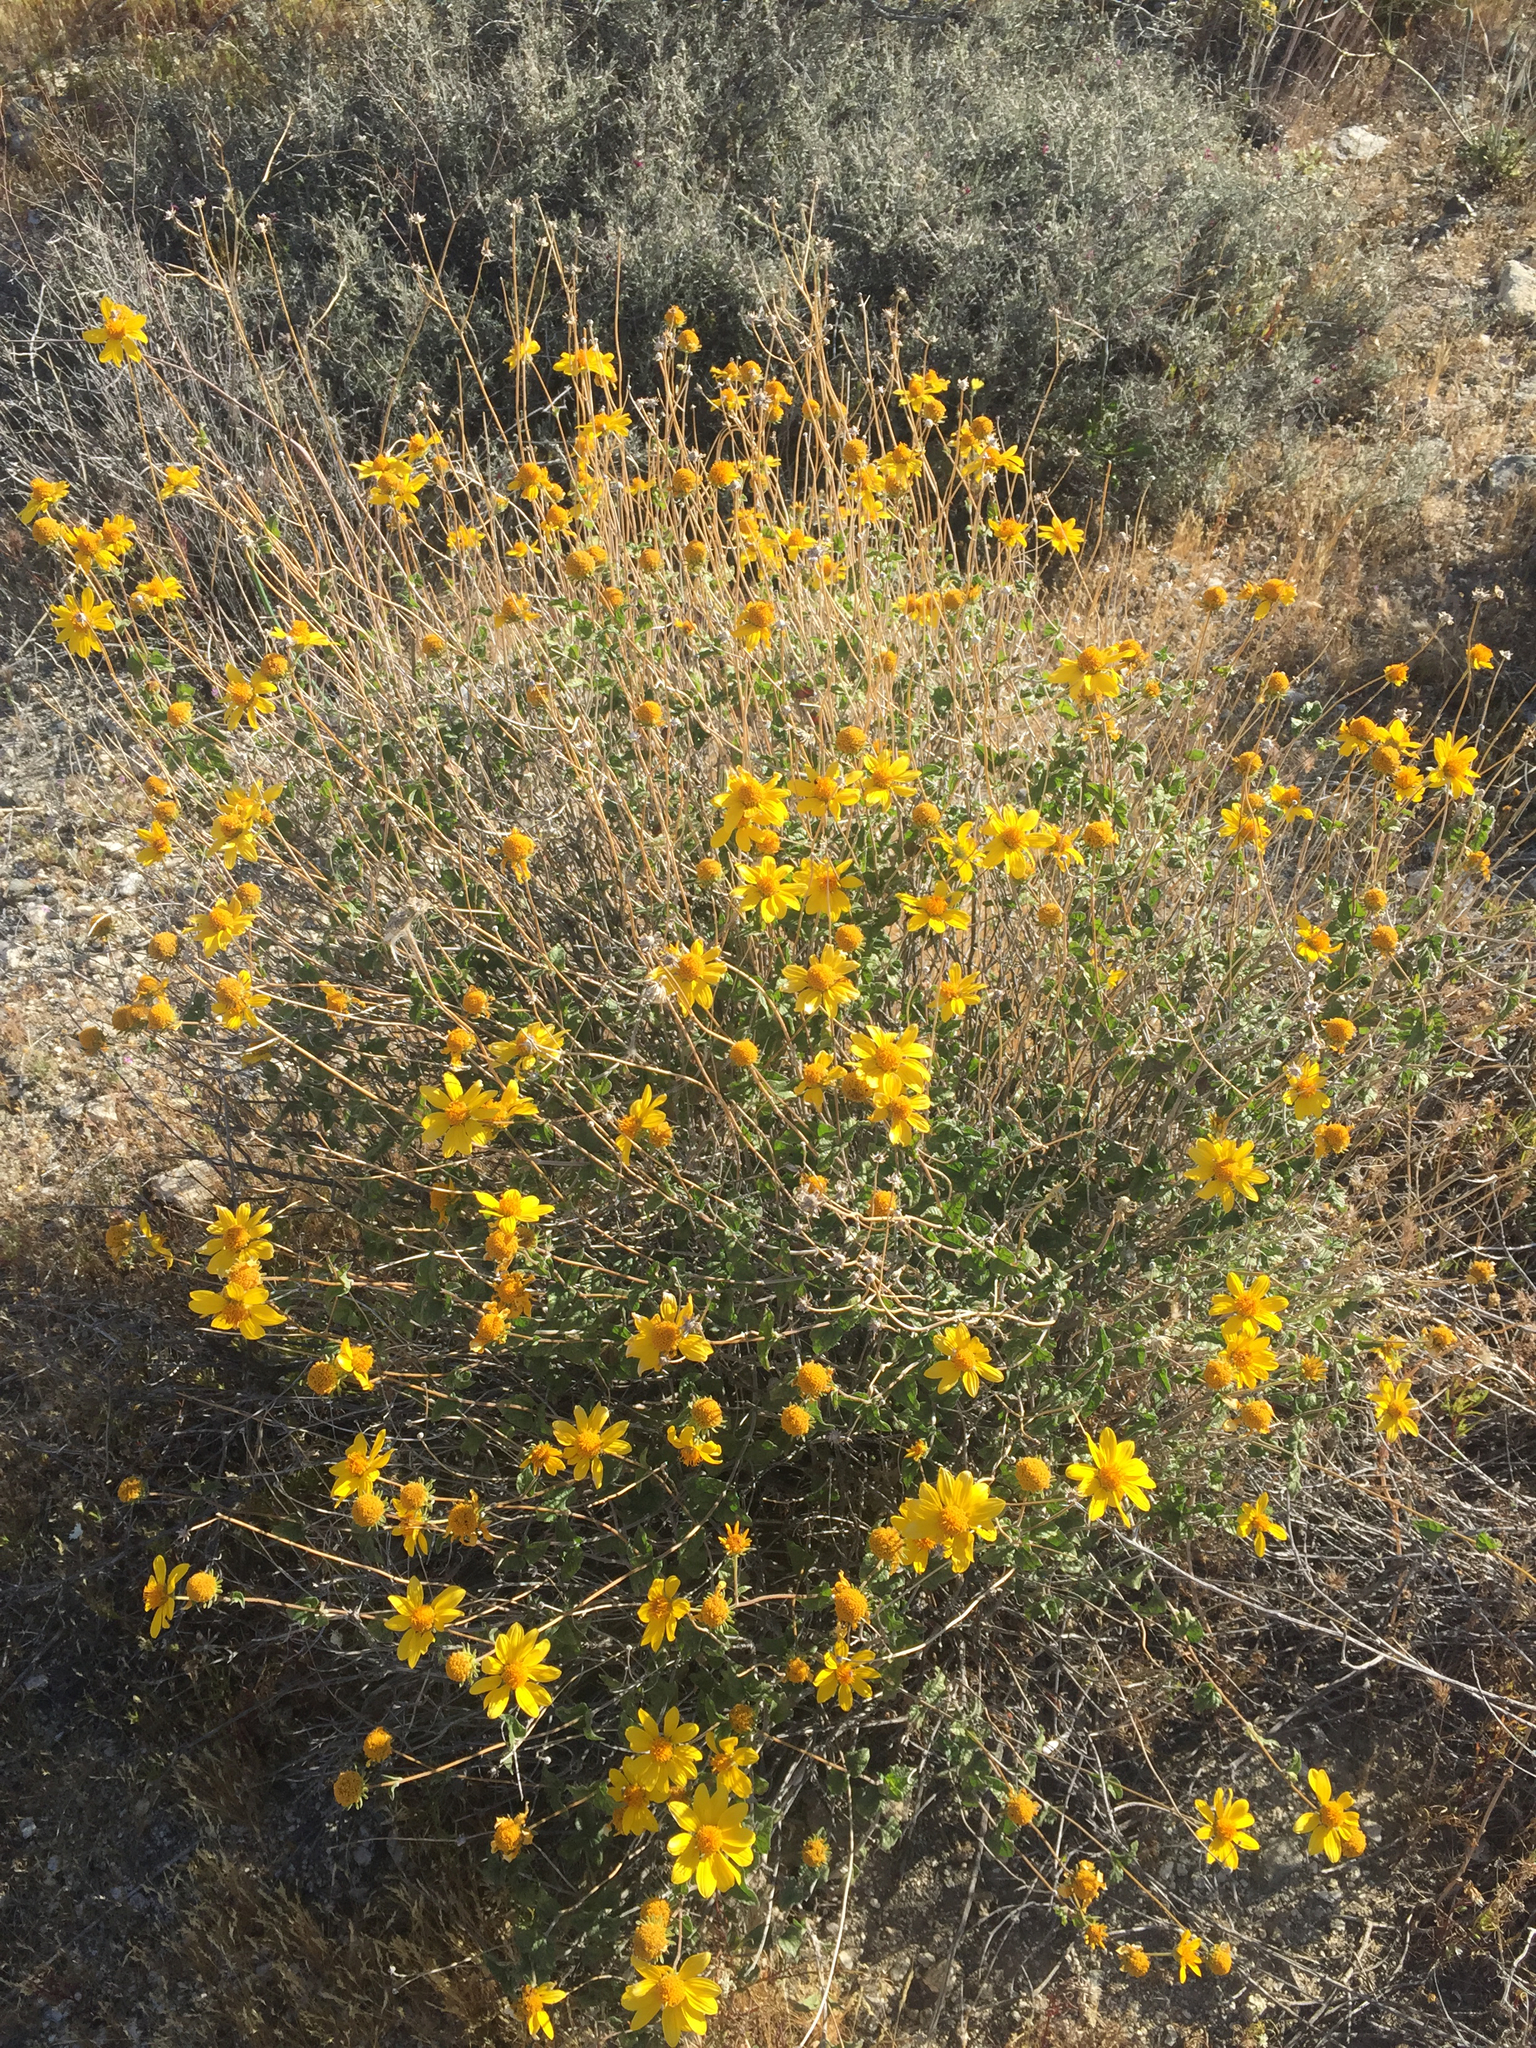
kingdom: Plantae
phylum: Tracheophyta
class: Magnoliopsida
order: Asterales
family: Asteraceae
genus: Bahiopsis
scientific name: Bahiopsis parishii
